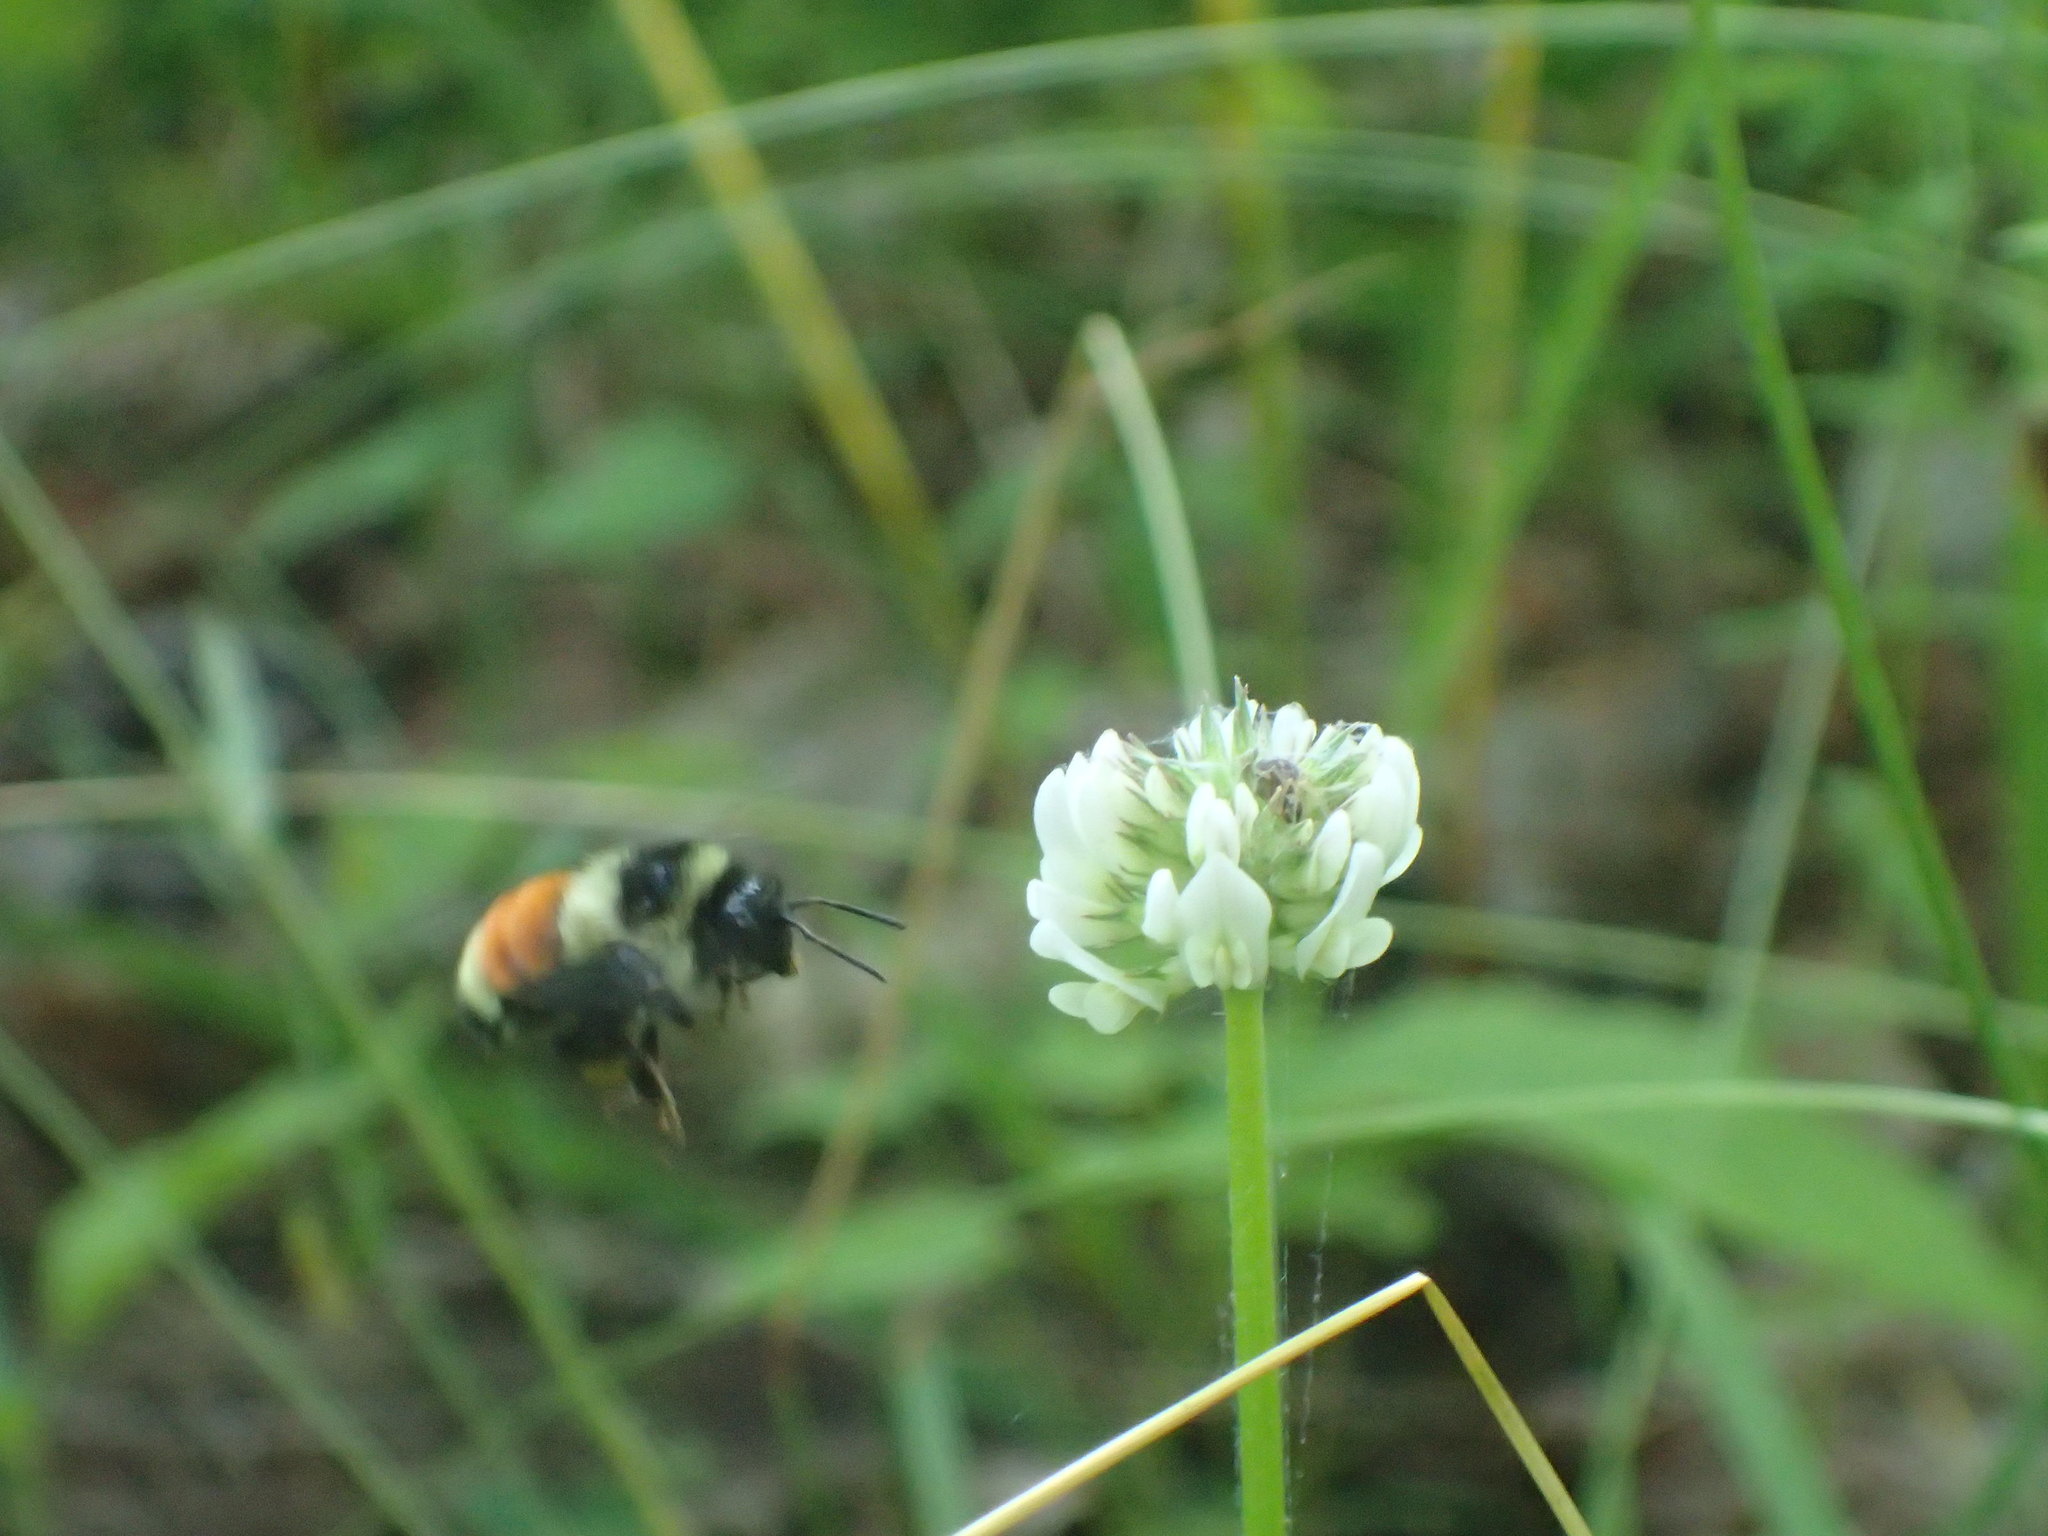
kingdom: Animalia
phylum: Arthropoda
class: Insecta
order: Hymenoptera
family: Apidae
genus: Bombus
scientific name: Bombus ternarius
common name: Tri-colored bumble bee
